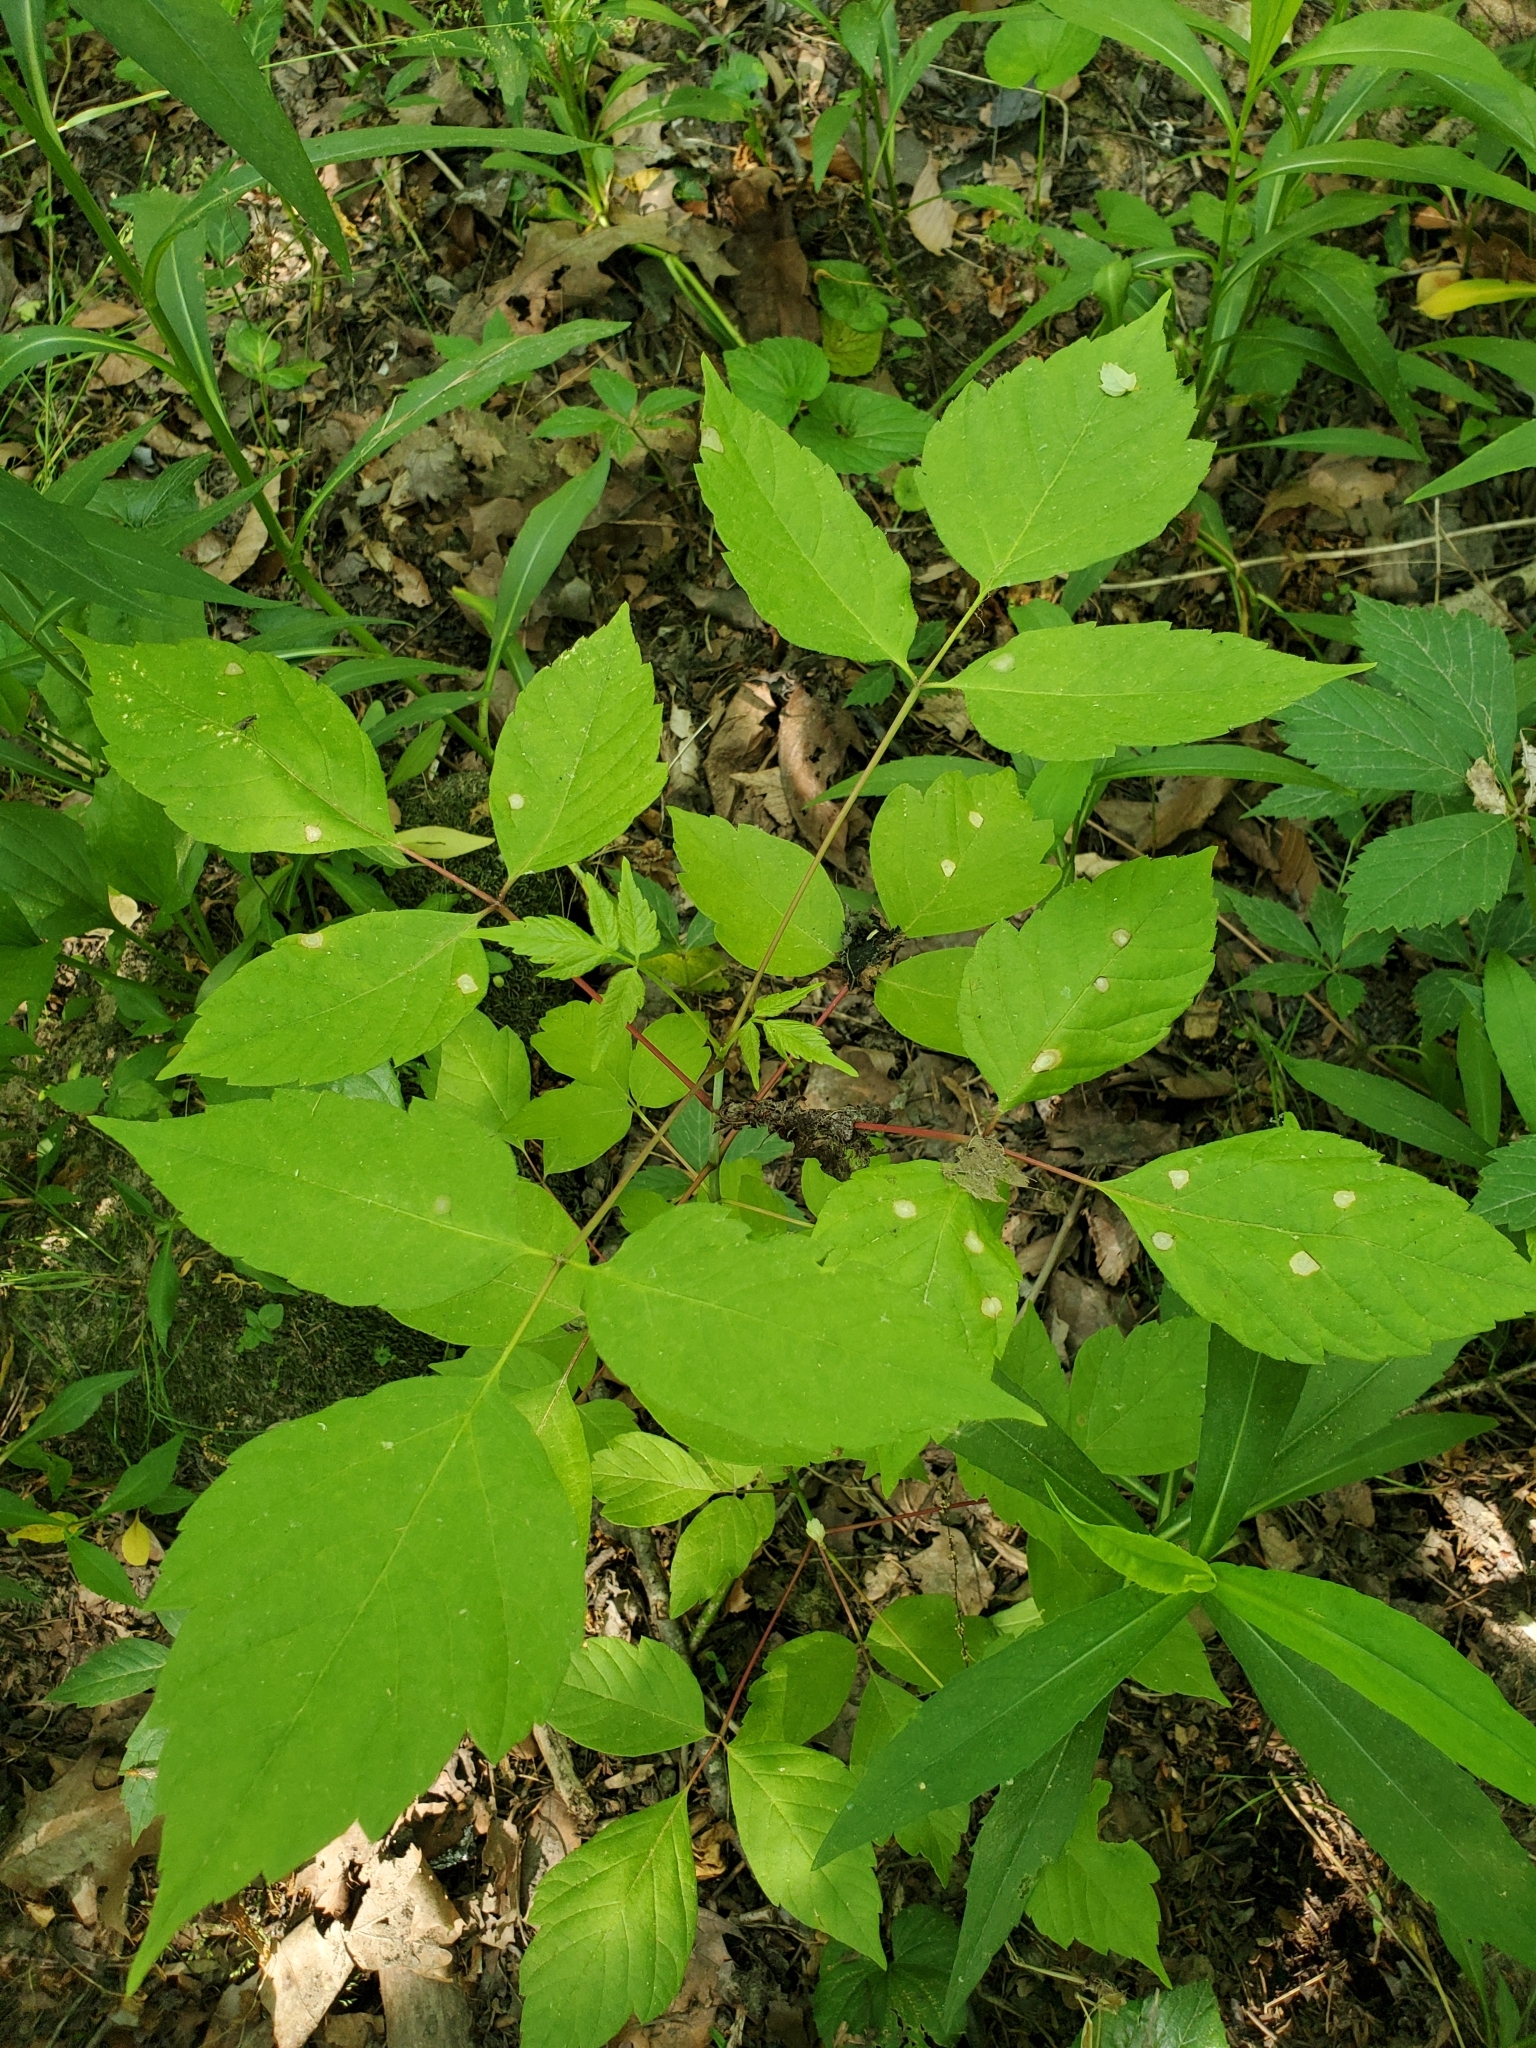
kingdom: Plantae
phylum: Tracheophyta
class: Magnoliopsida
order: Sapindales
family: Sapindaceae
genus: Acer
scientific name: Acer negundo
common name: Ashleaf maple
